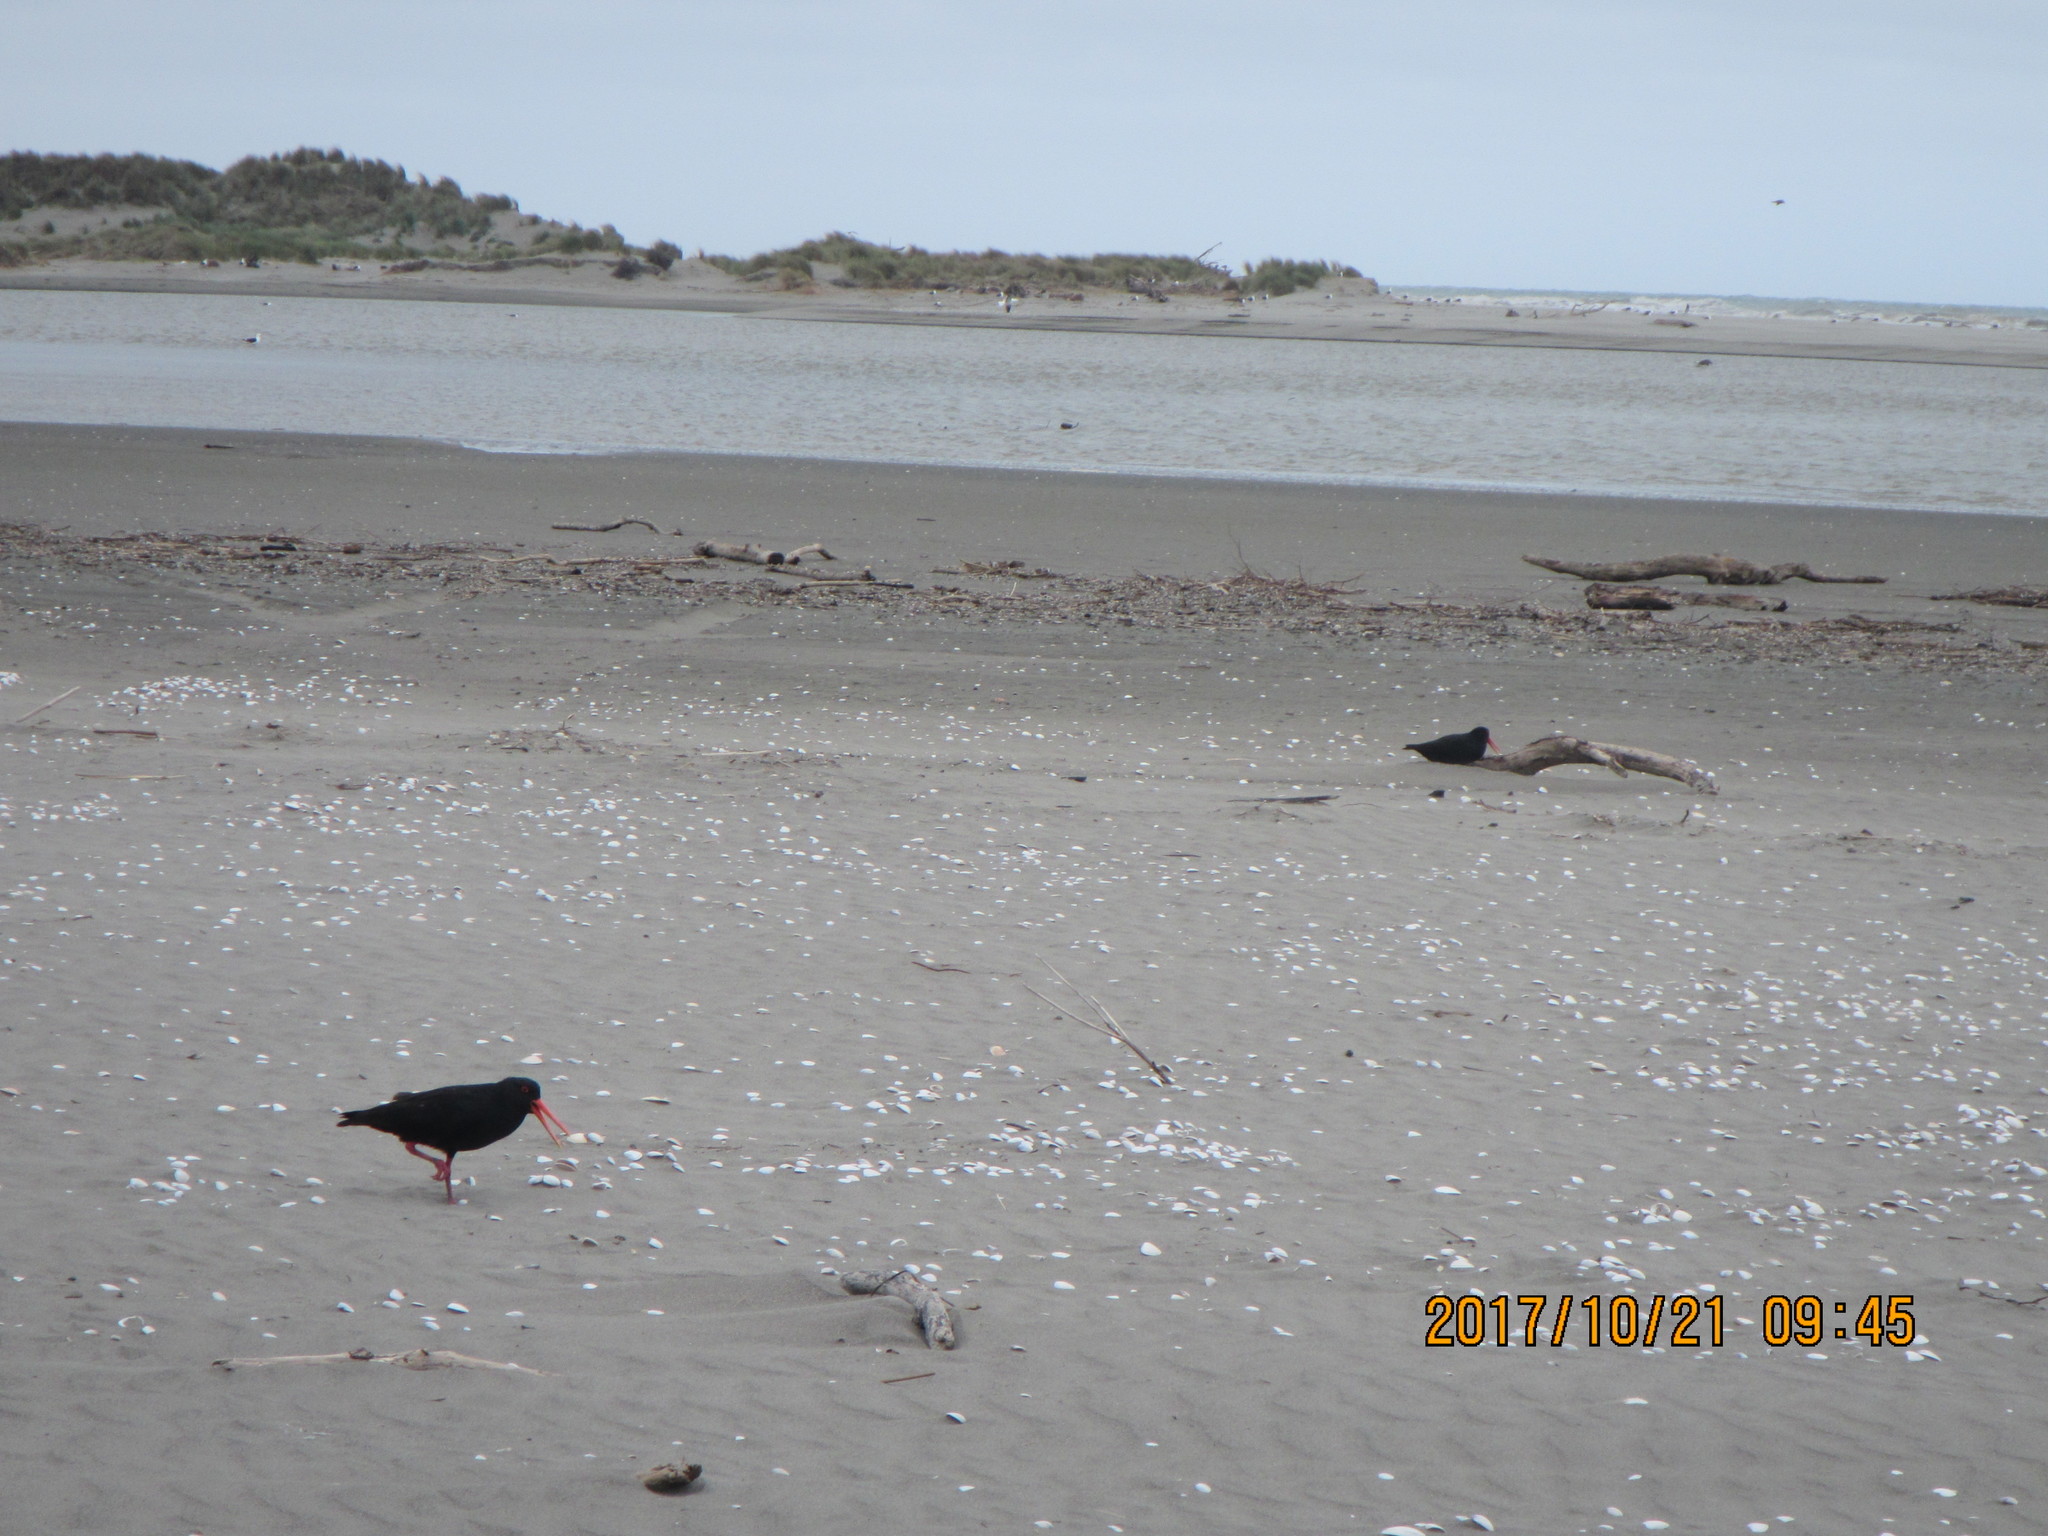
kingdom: Animalia
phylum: Chordata
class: Aves
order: Charadriiformes
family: Haematopodidae
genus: Haematopus
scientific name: Haematopus unicolor
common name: Variable oystercatcher
